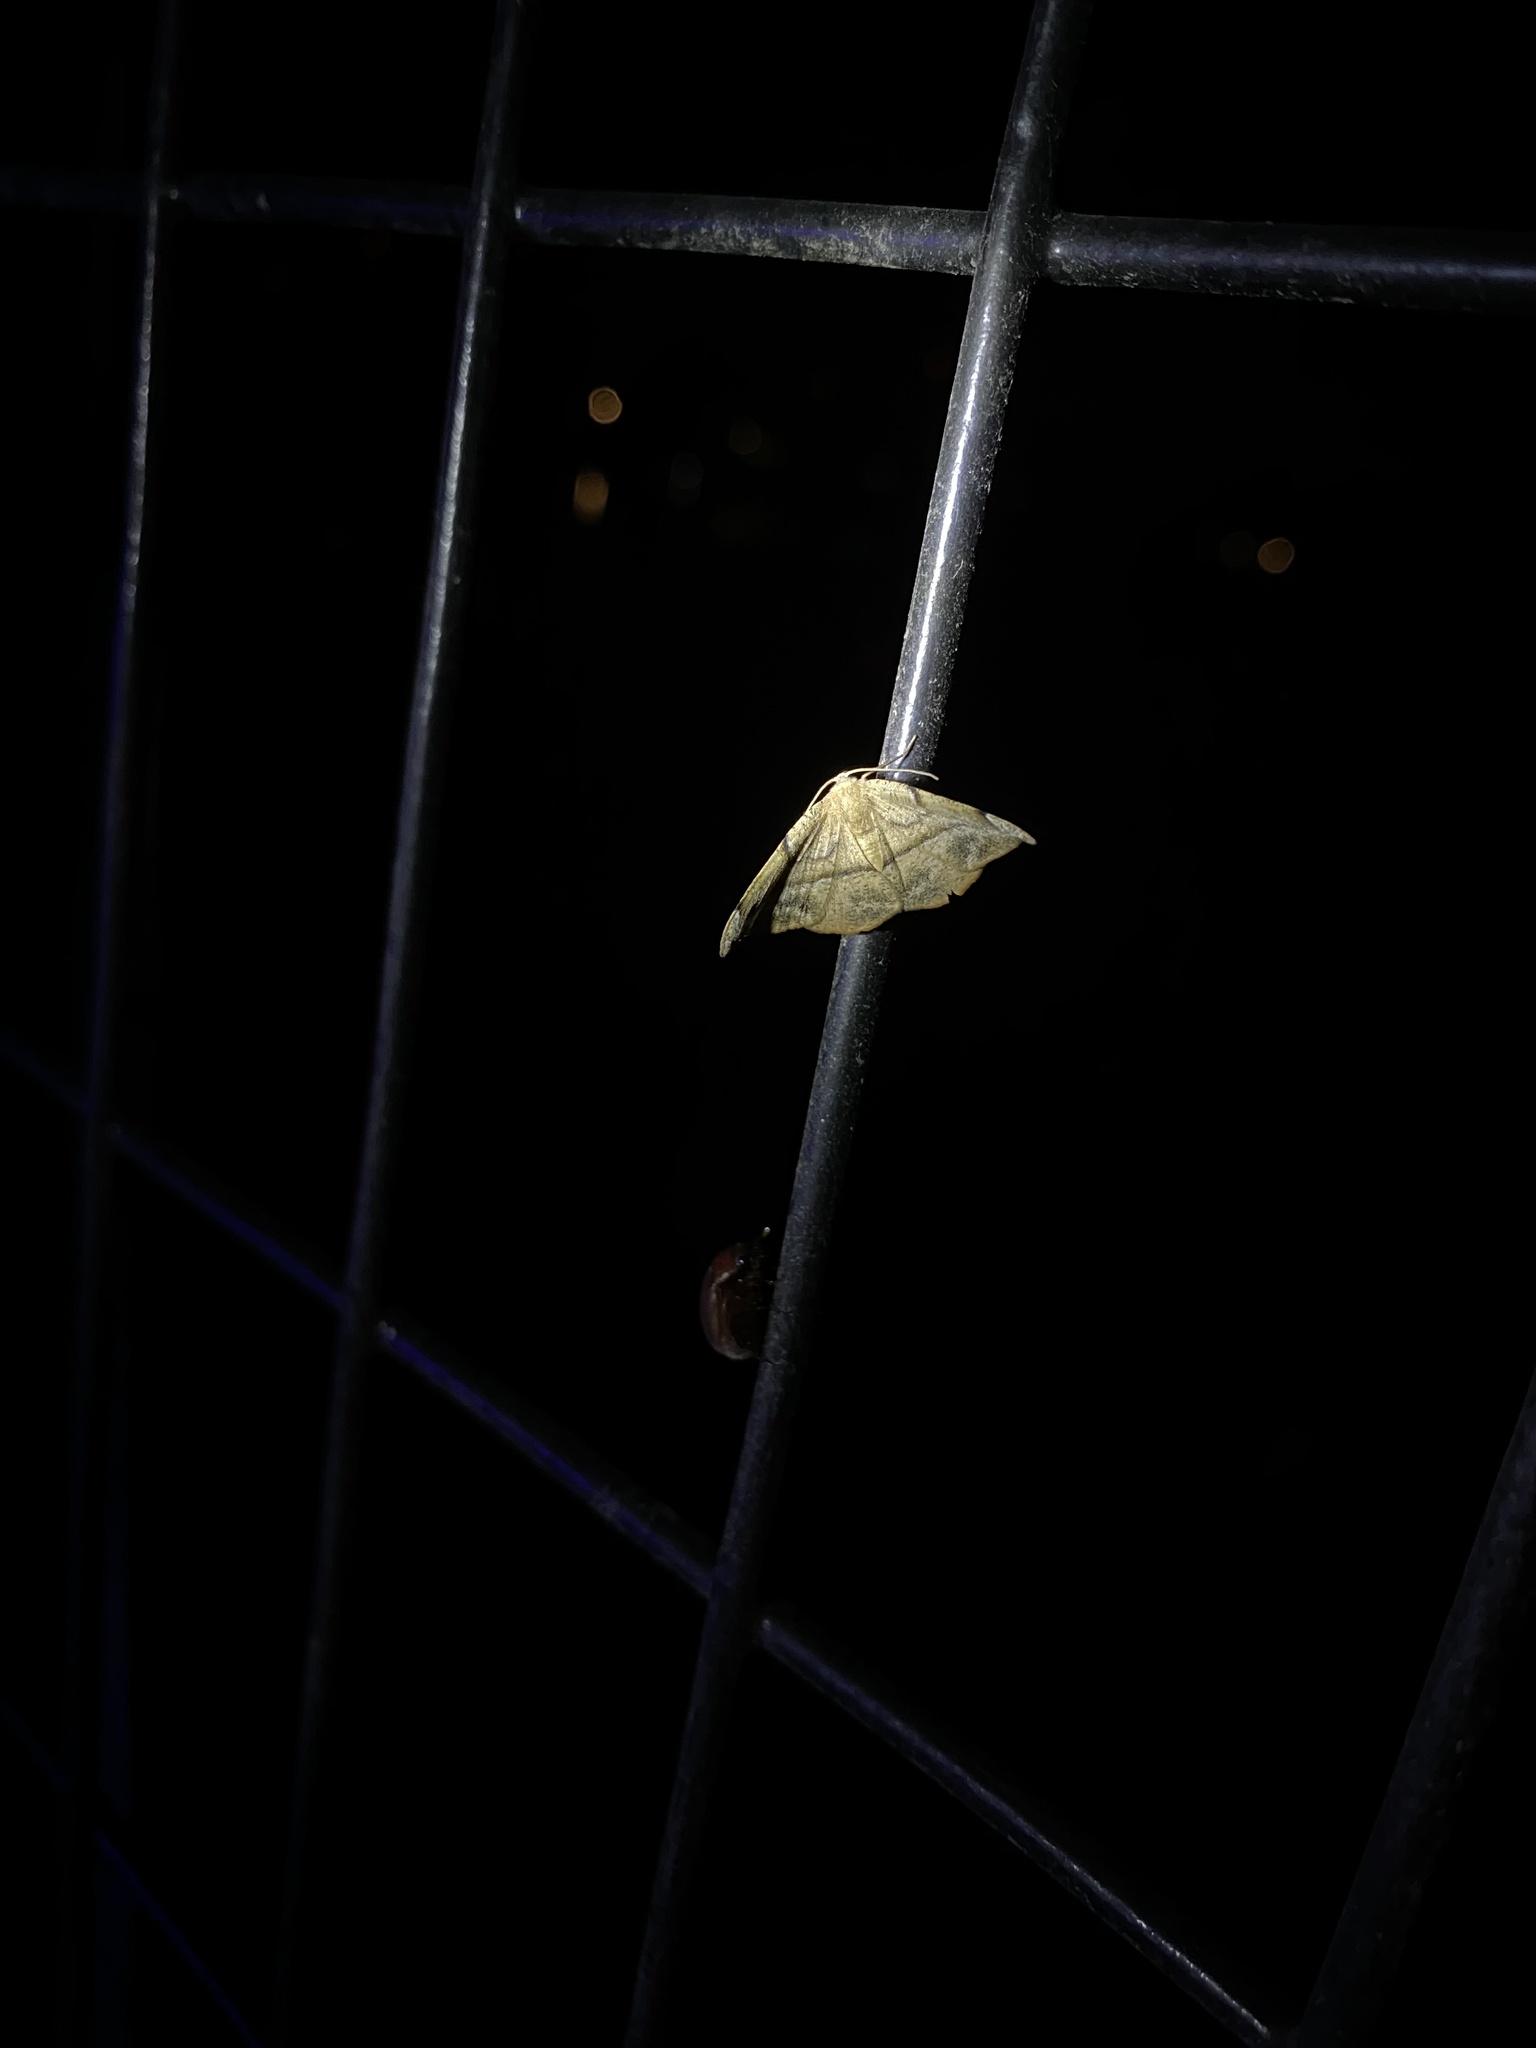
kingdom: Animalia
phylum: Arthropoda
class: Insecta
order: Lepidoptera
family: Geometridae
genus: Patalene
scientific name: Patalene olyzonaria
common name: Juniper geometer moth
